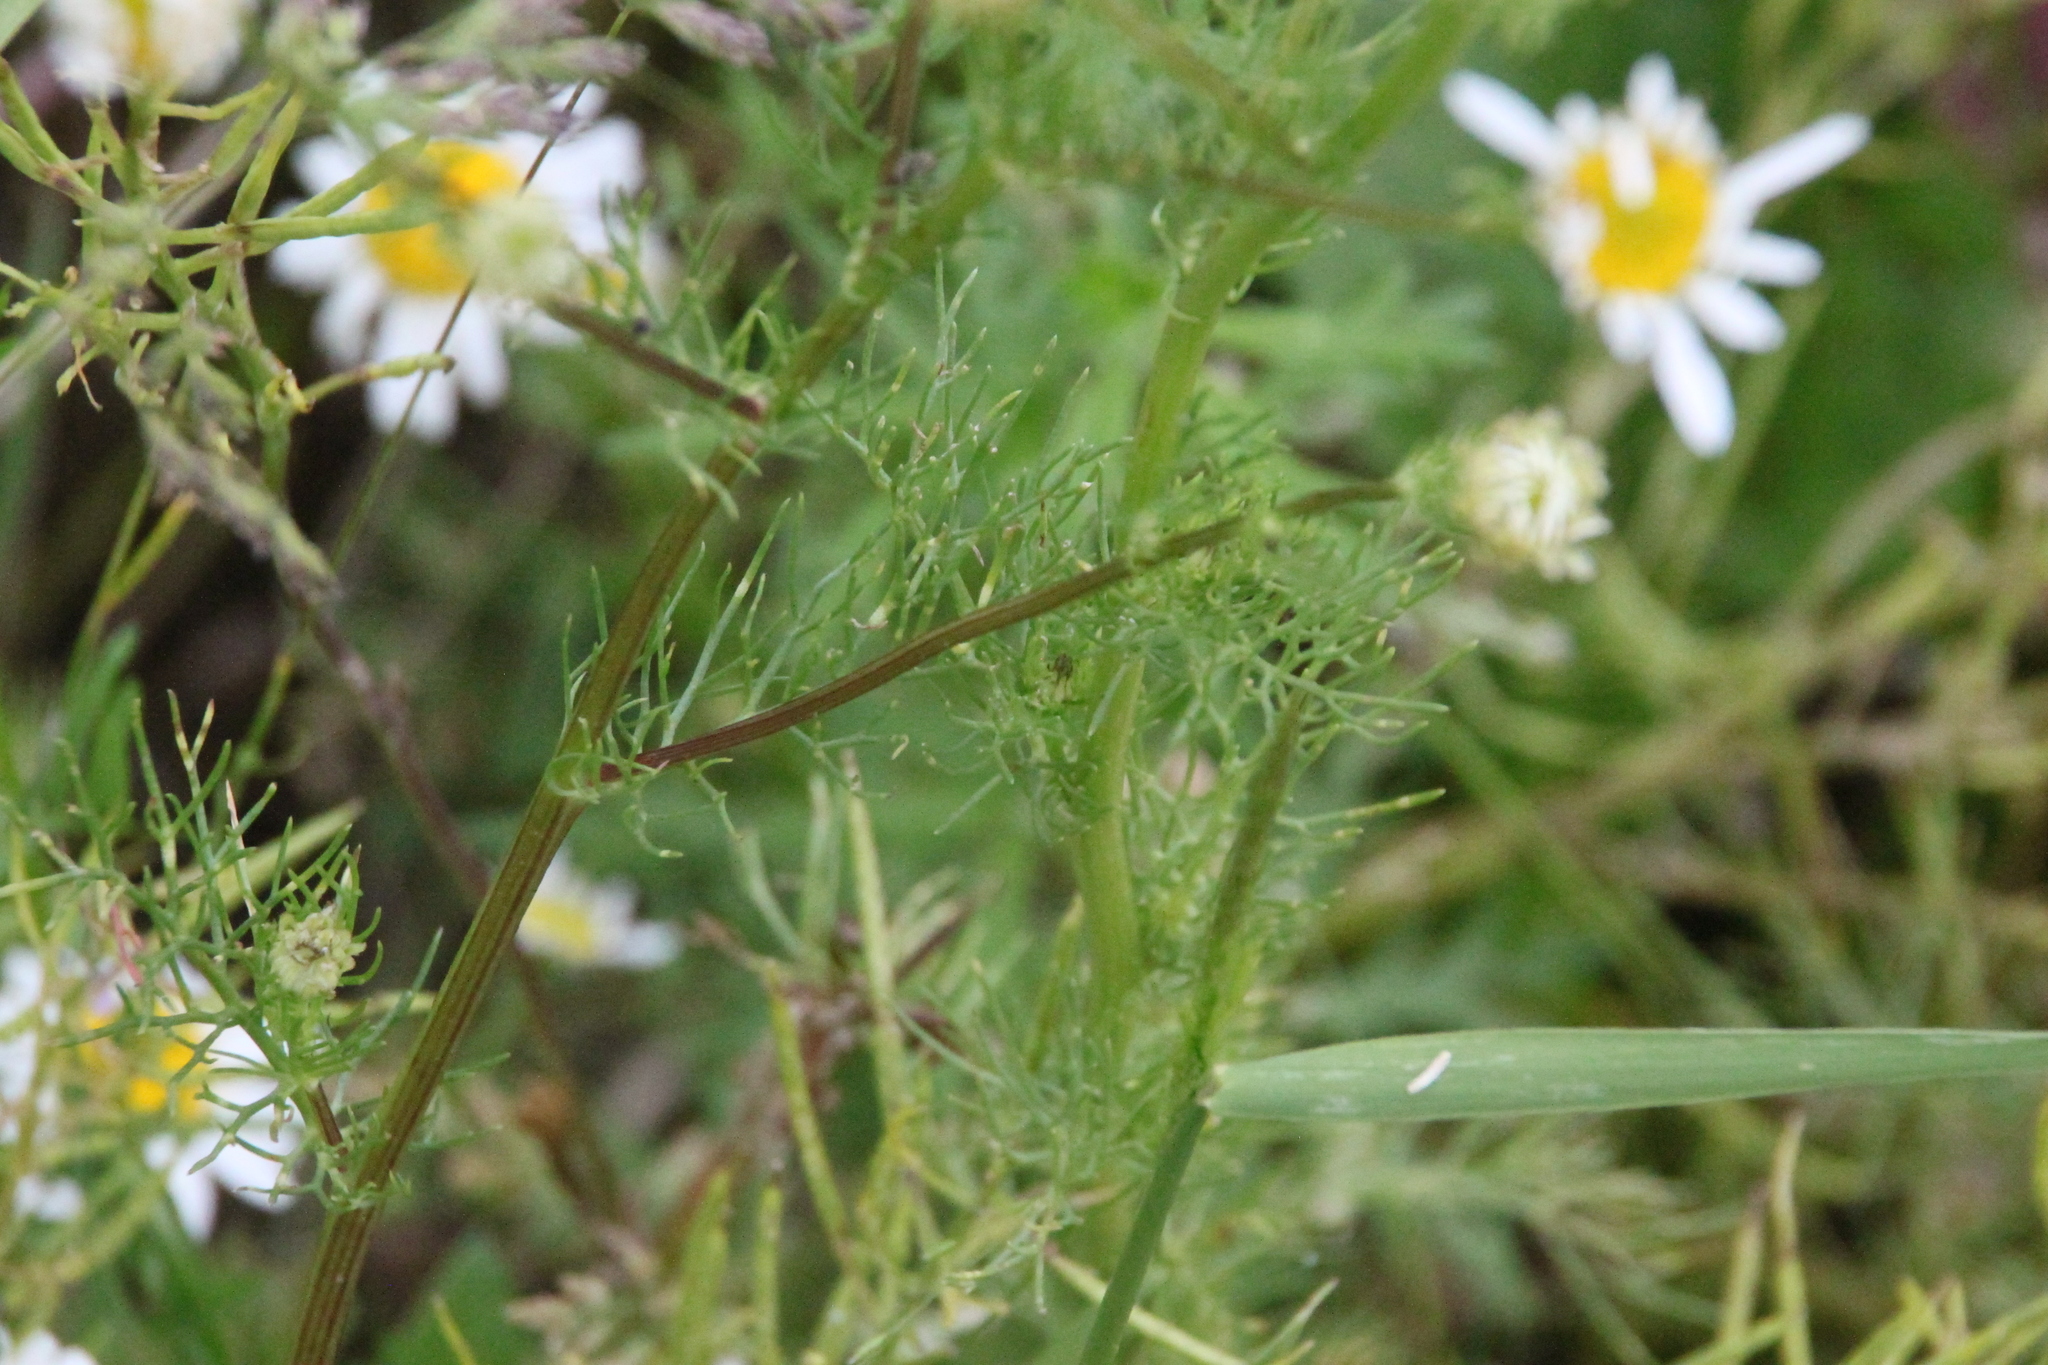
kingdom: Plantae
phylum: Tracheophyta
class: Magnoliopsida
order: Asterales
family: Asteraceae
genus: Tripleurospermum
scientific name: Tripleurospermum inodorum
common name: Scentless mayweed
